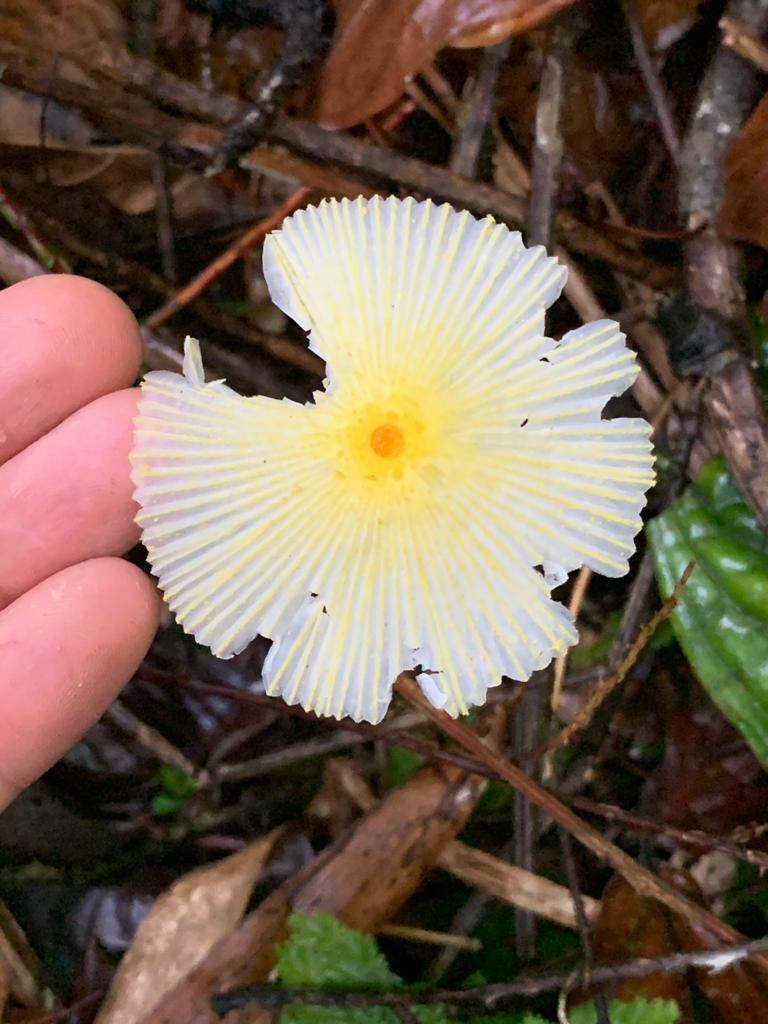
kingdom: Fungi
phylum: Basidiomycota
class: Agaricomycetes
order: Agaricales
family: Agaricaceae
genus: Leucocoprinus
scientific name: Leucocoprinus fragilissimus
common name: Fragile dapperling
